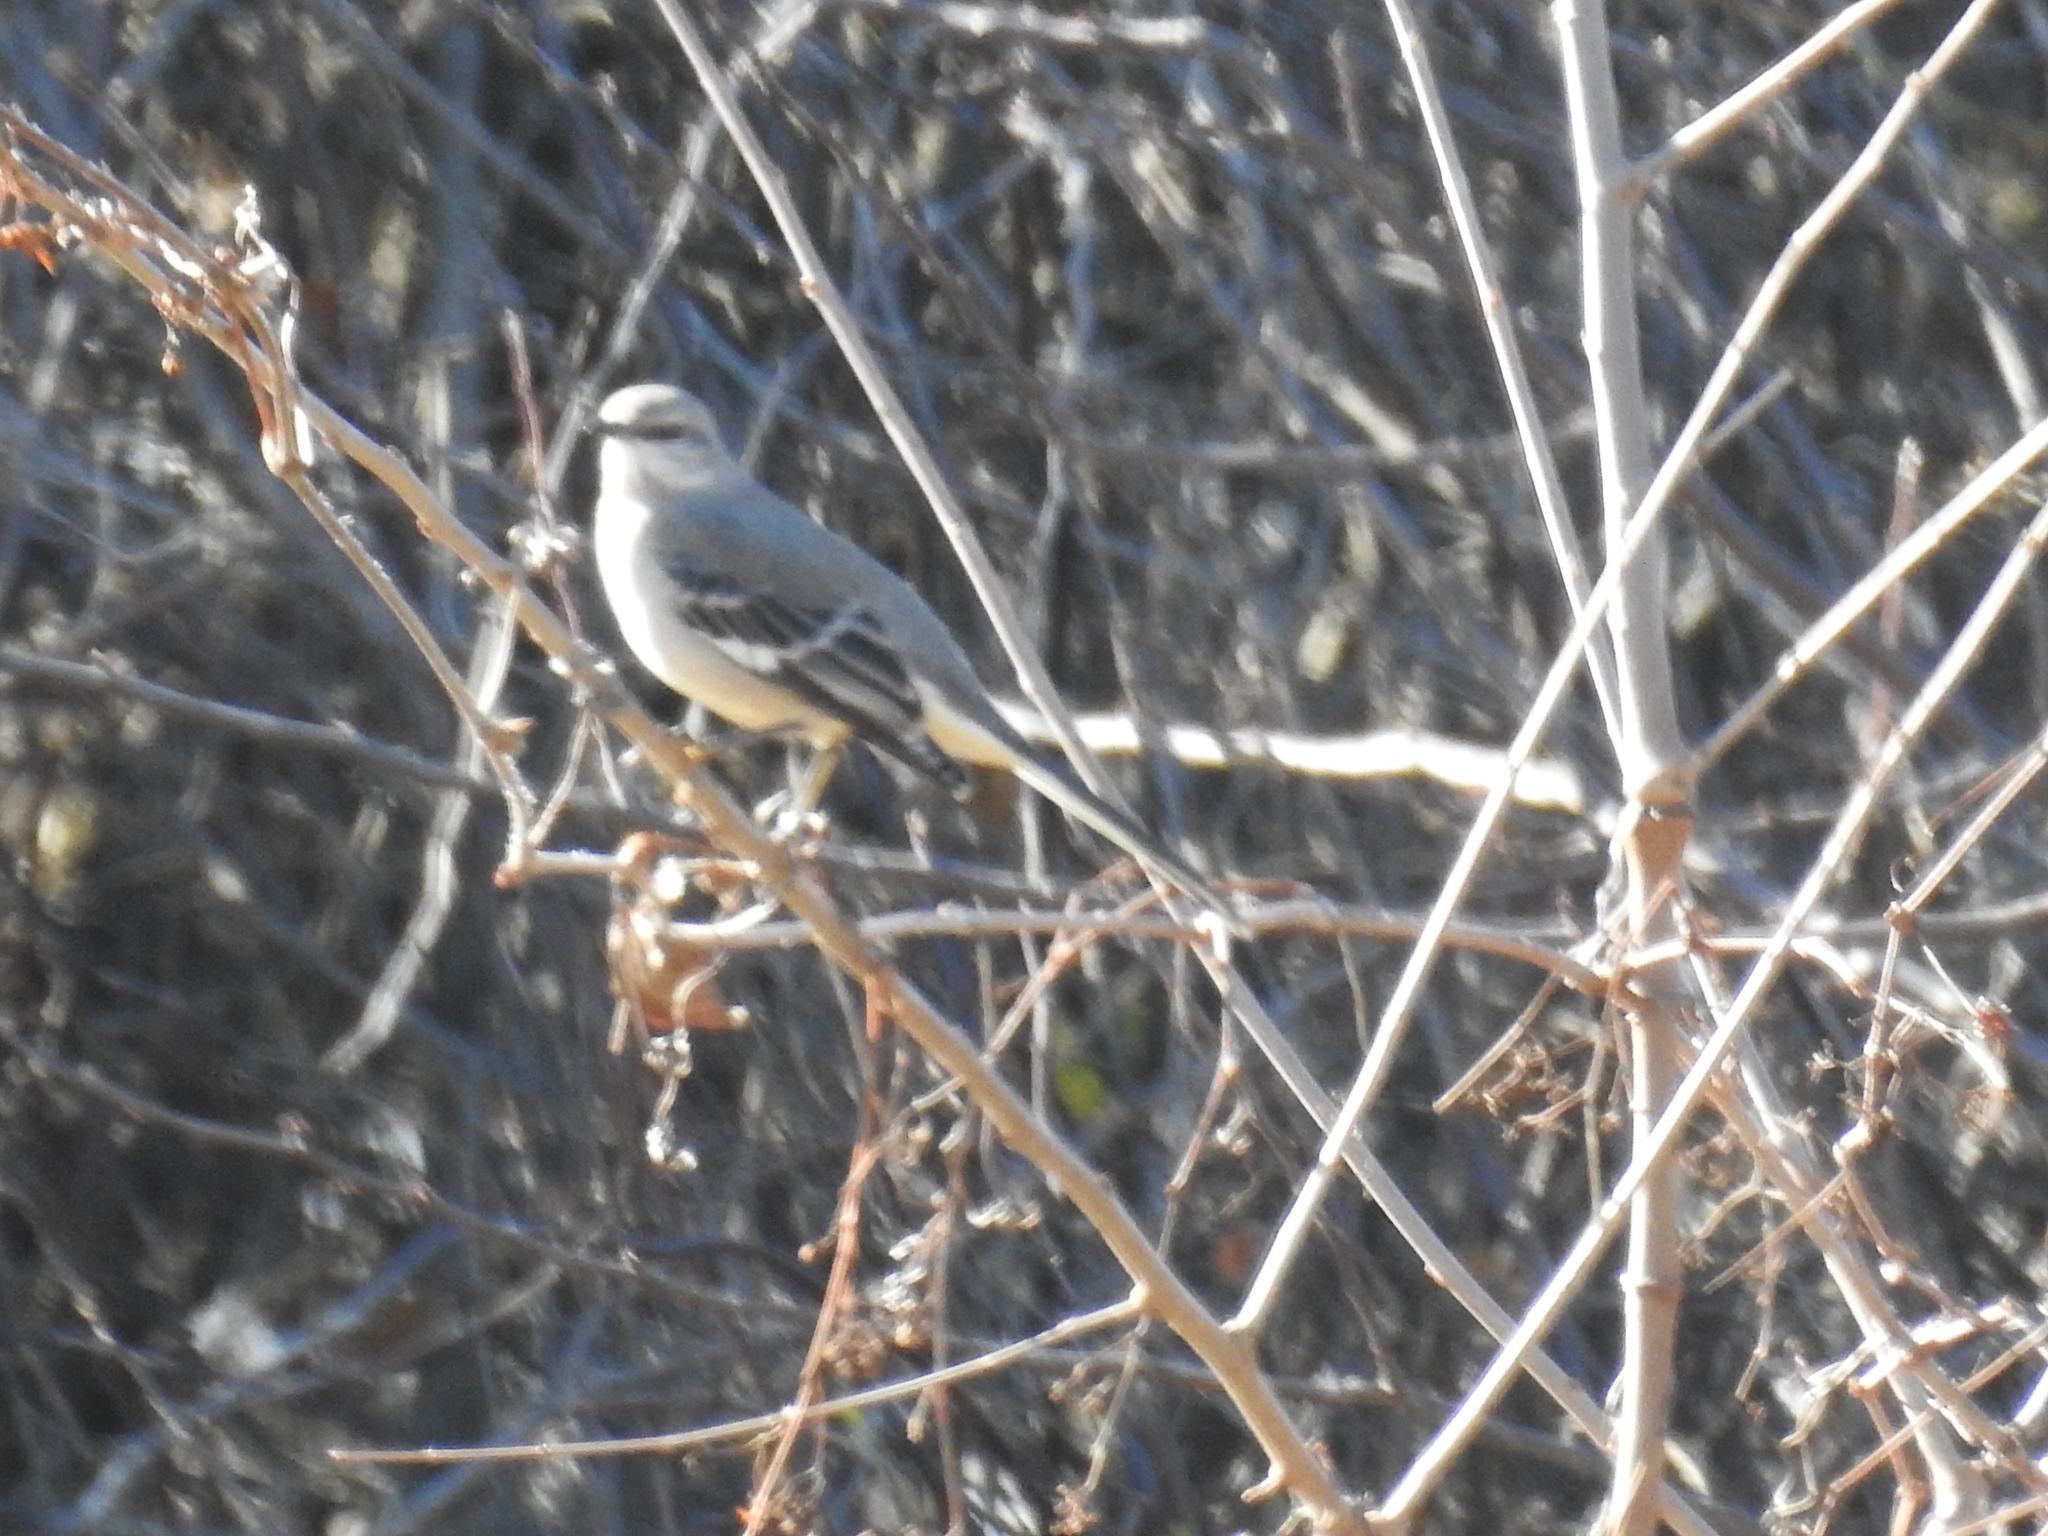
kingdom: Animalia
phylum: Chordata
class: Aves
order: Passeriformes
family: Mimidae
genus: Mimus
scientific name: Mimus polyglottos
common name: Northern mockingbird
